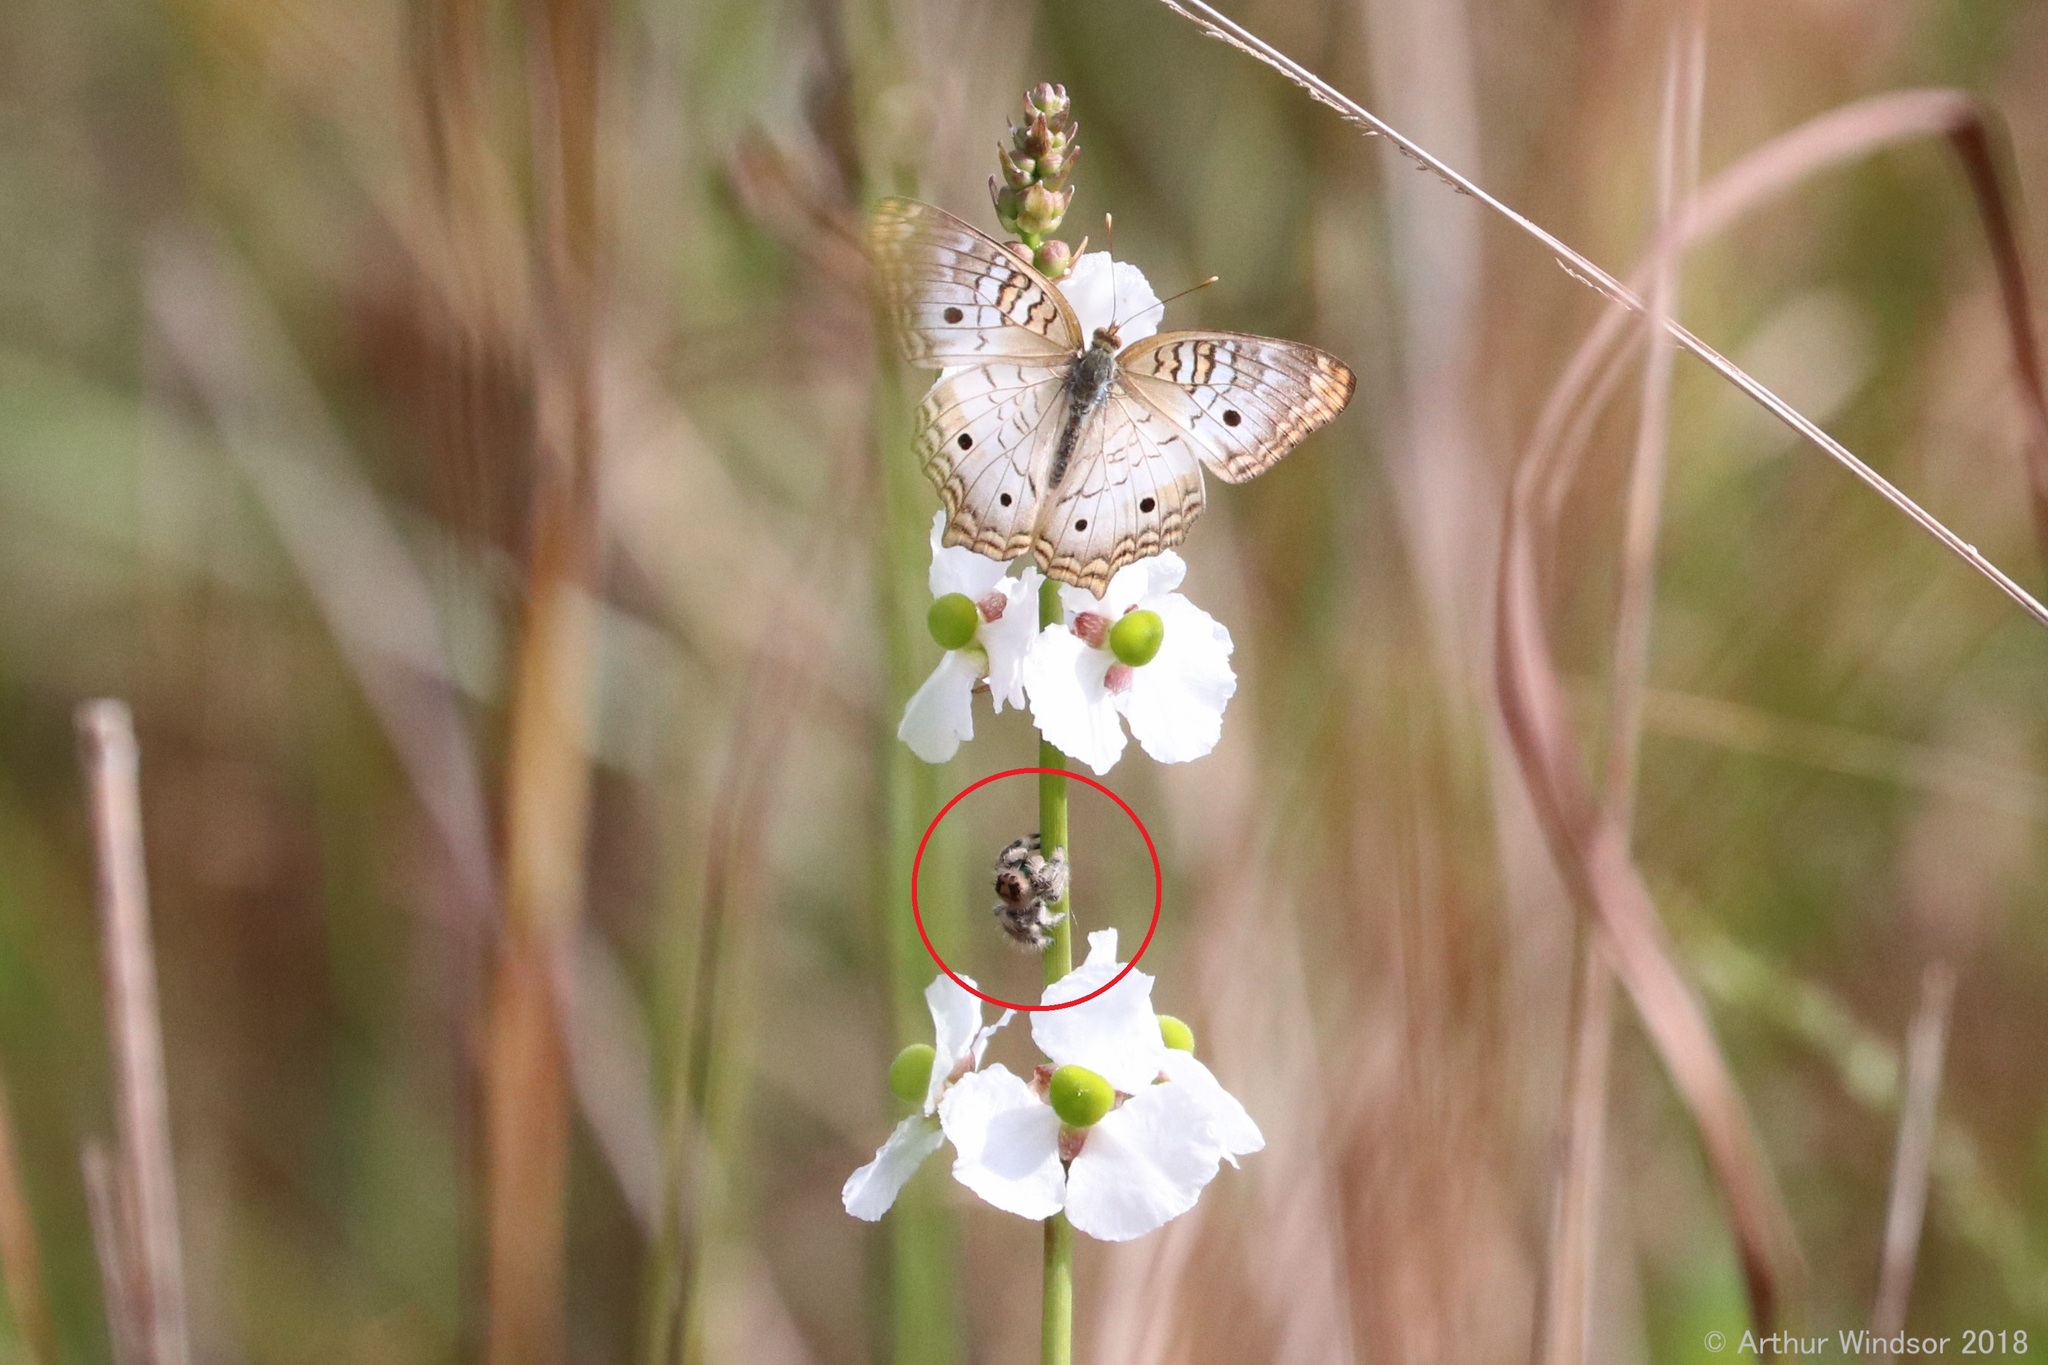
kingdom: Animalia
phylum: Arthropoda
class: Arachnida
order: Araneae
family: Salticidae
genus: Phidippus
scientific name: Phidippus regius
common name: Regal jumper
